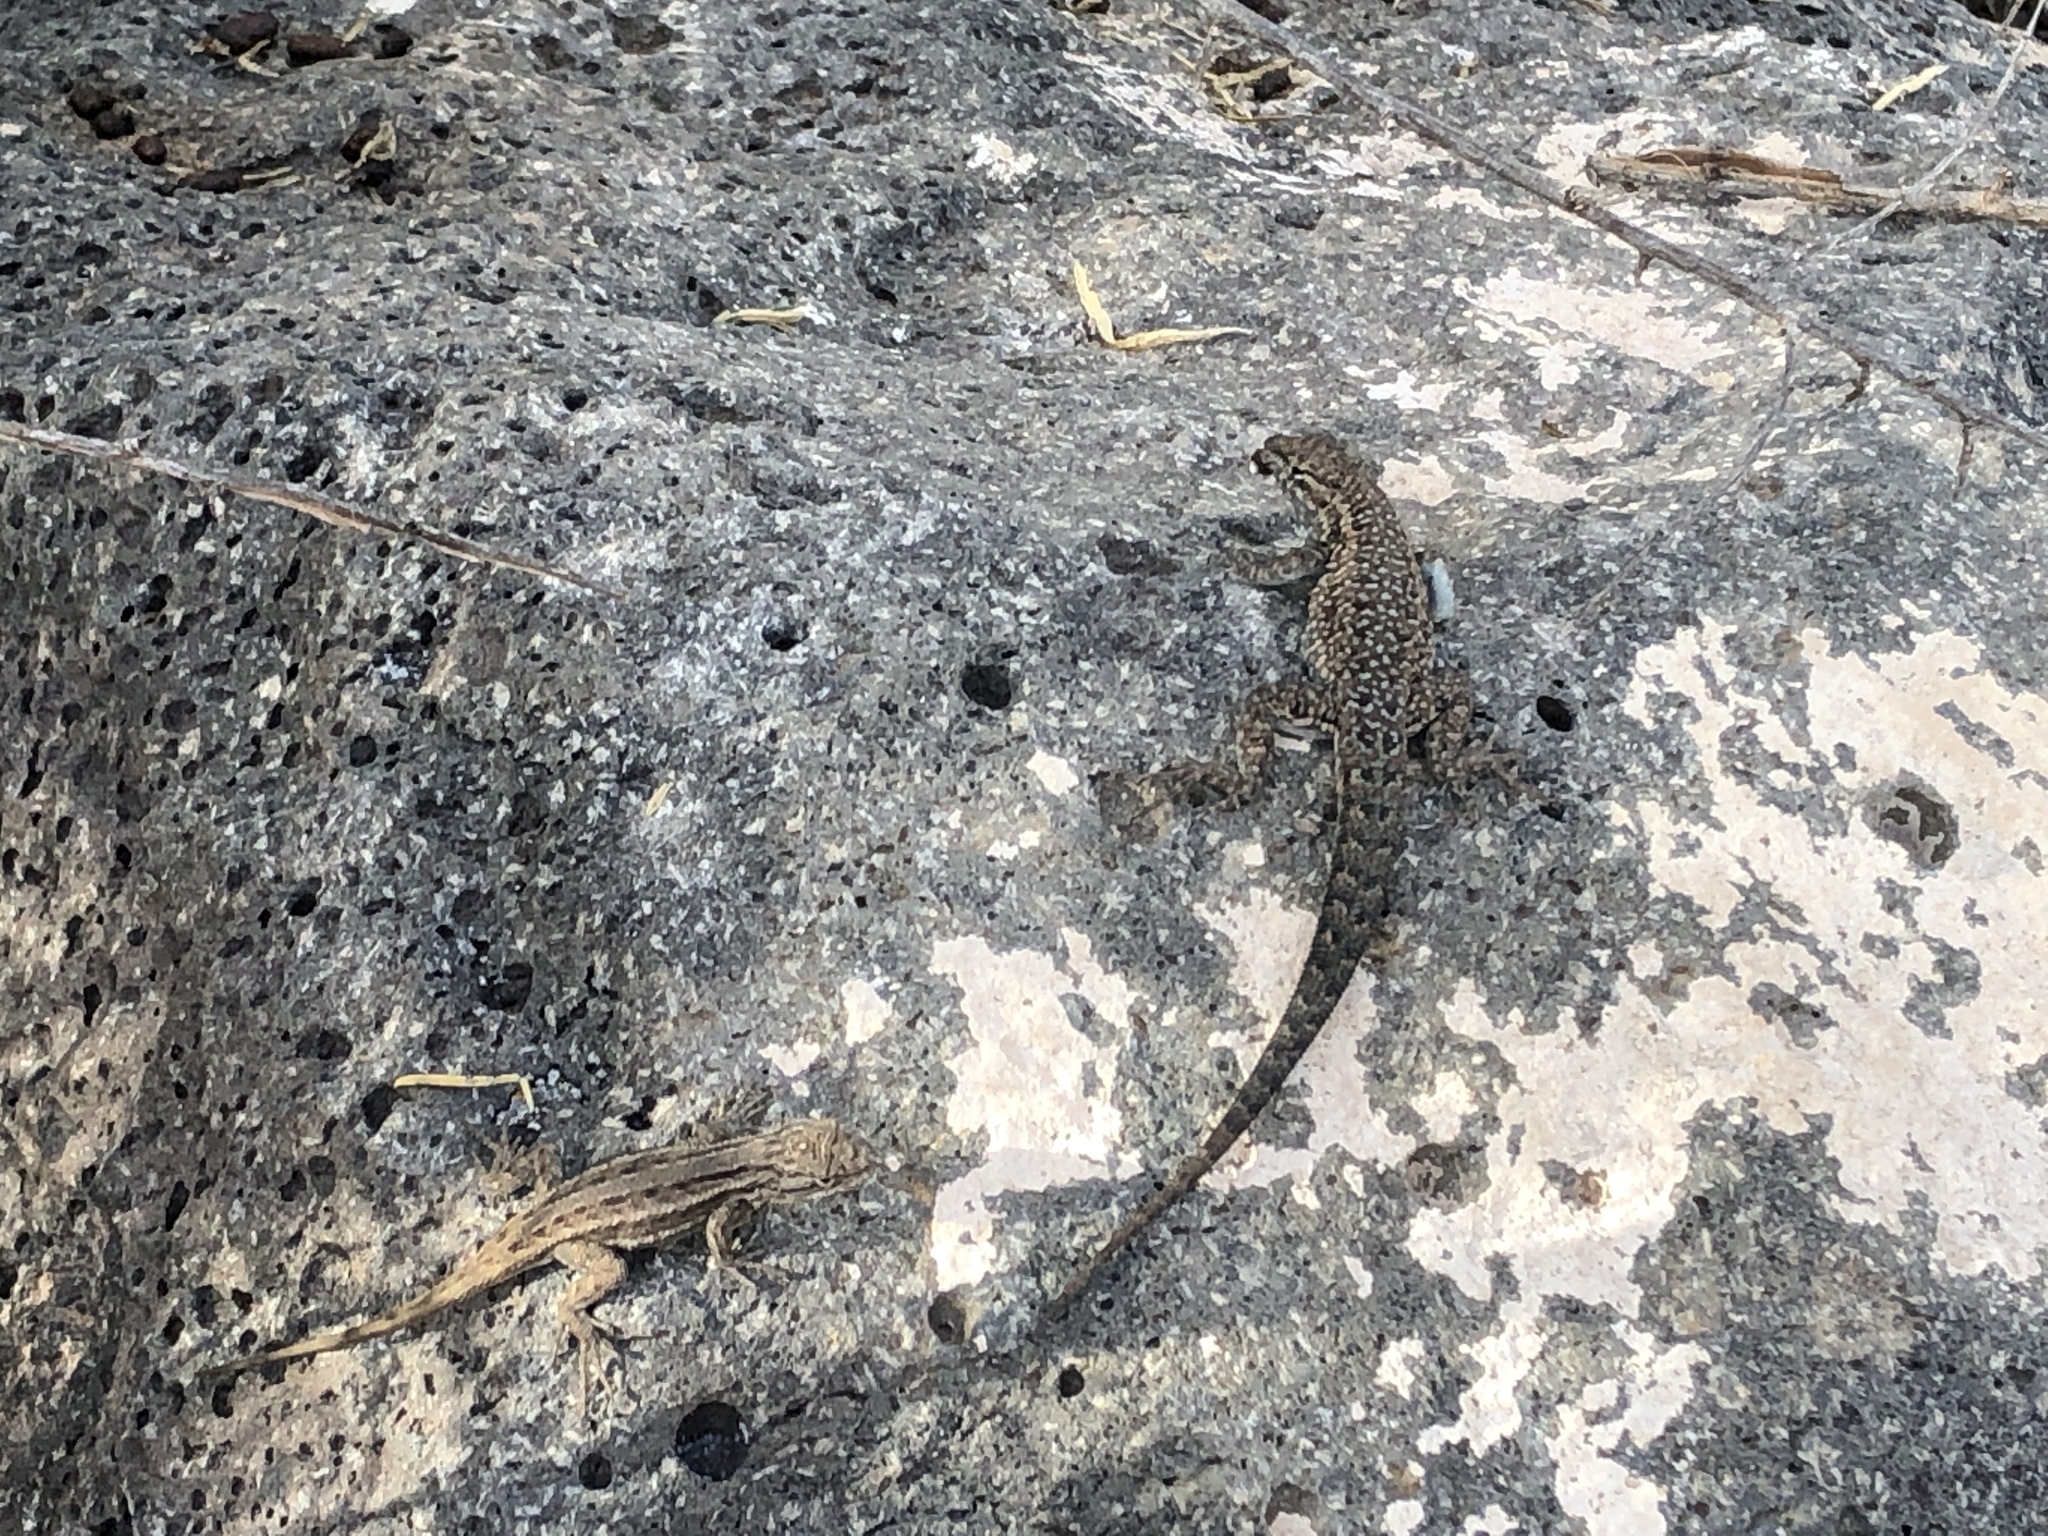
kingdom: Animalia
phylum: Chordata
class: Squamata
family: Phrynosomatidae
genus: Uta
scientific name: Uta stansburiana
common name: Side-blotched lizard
